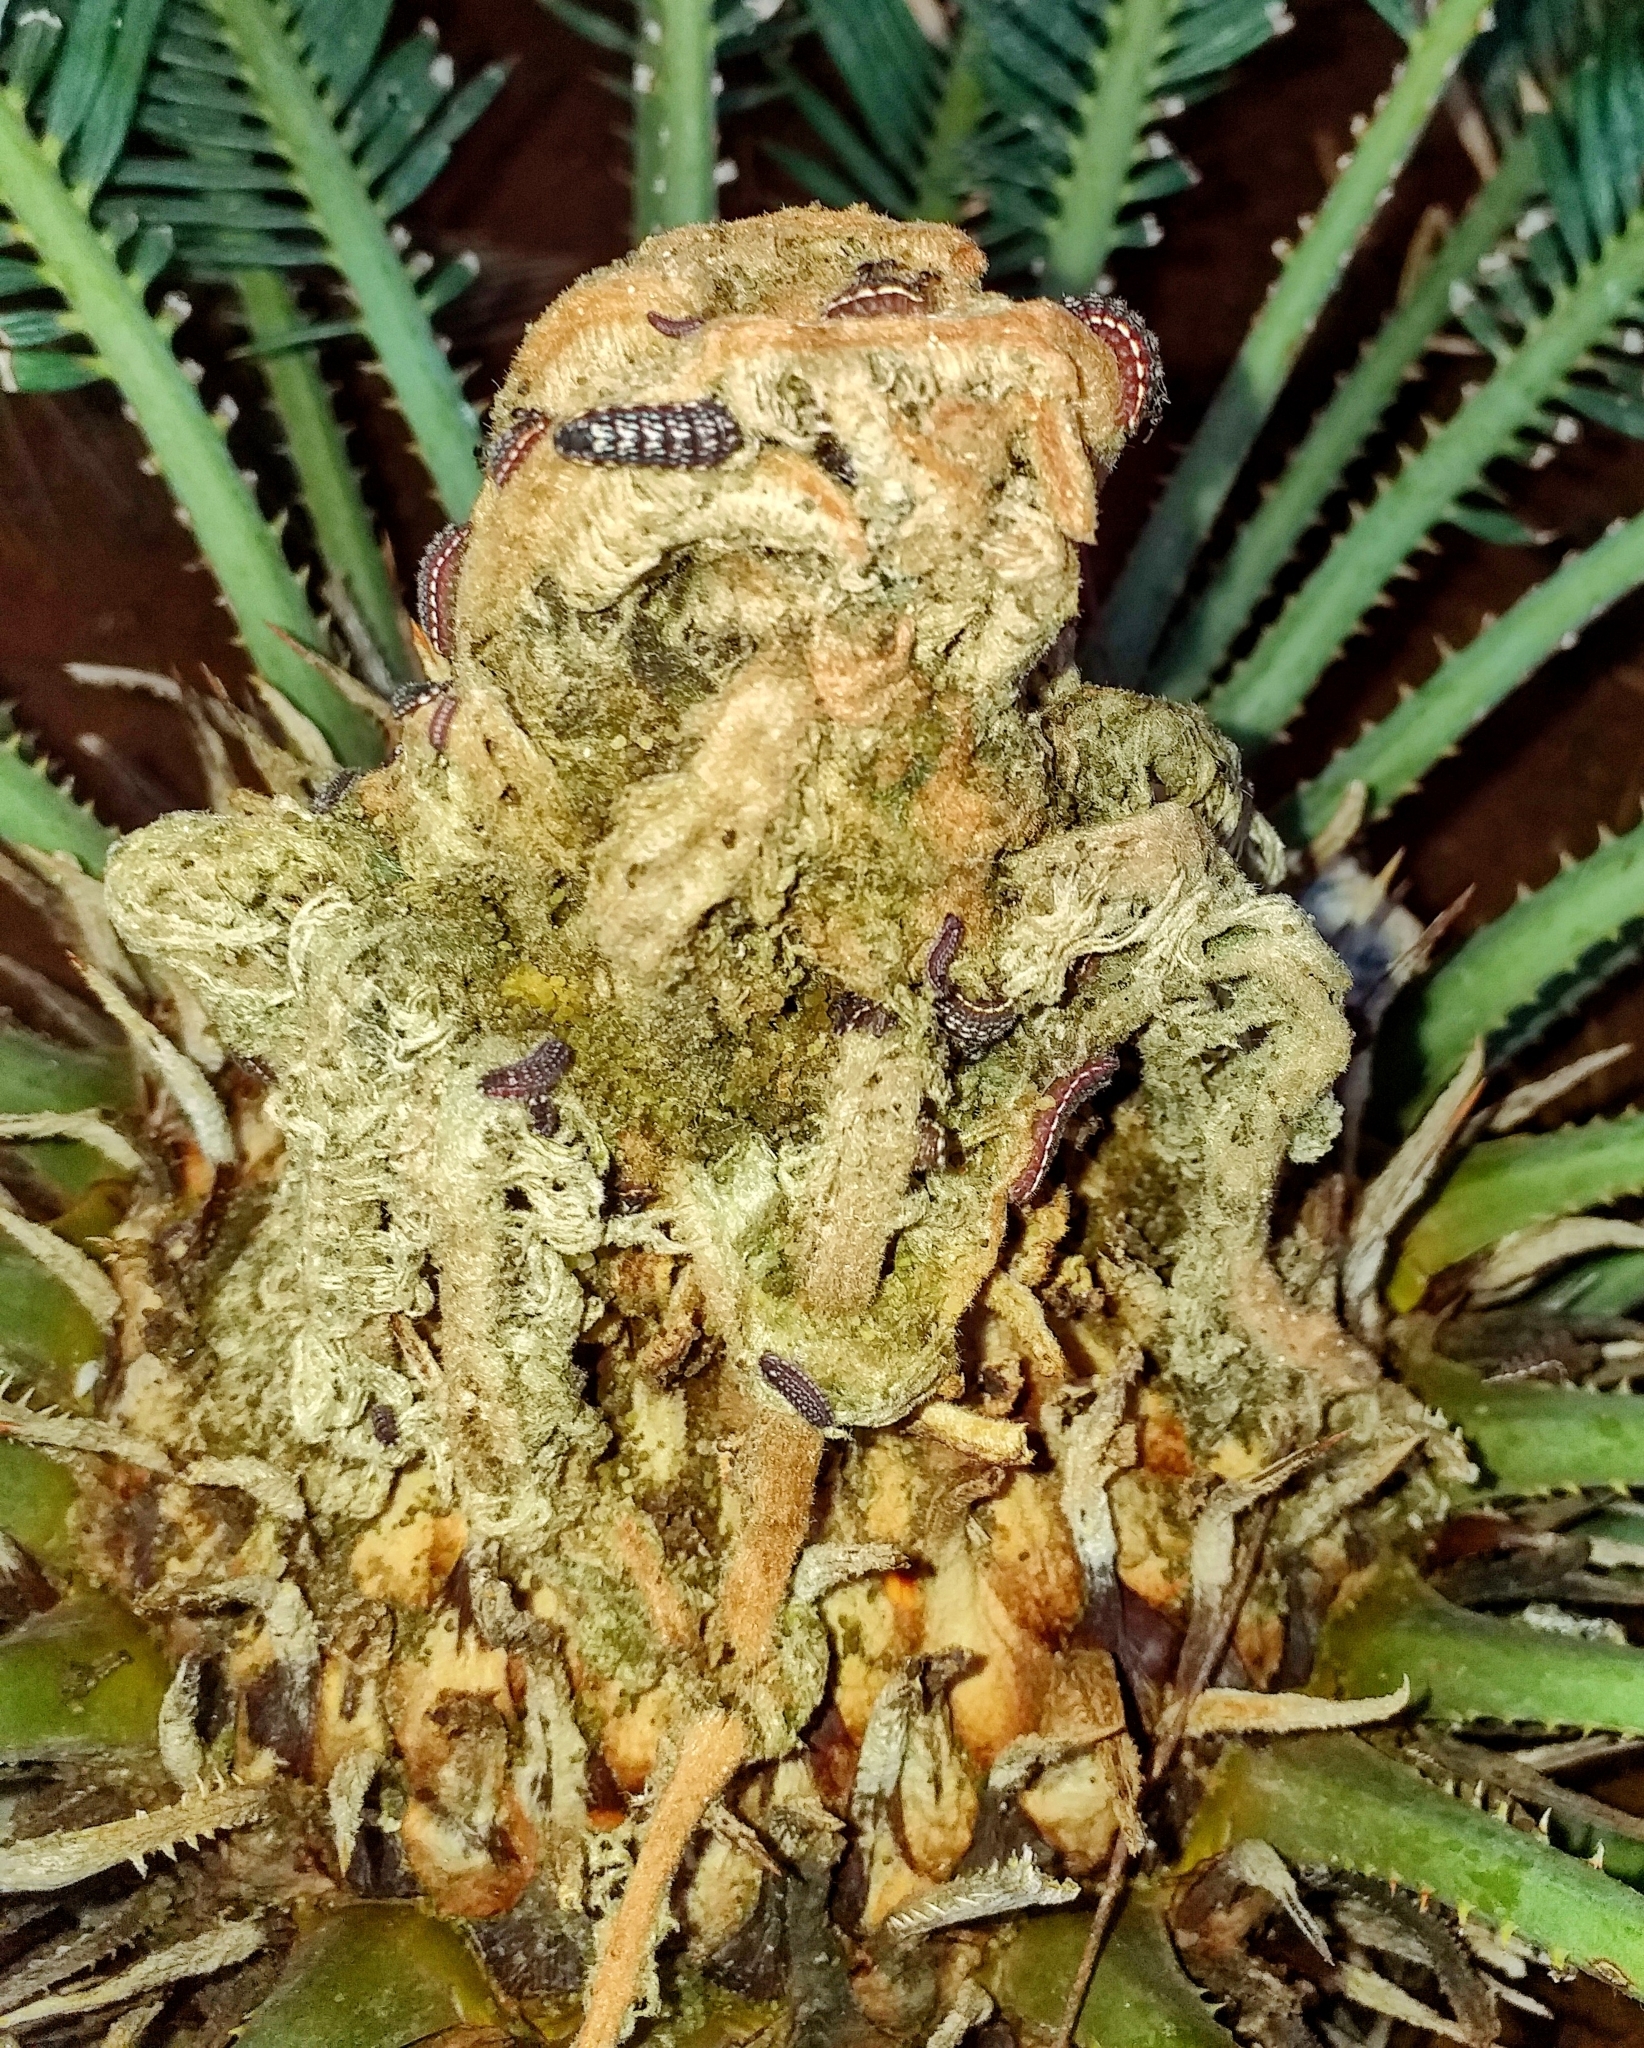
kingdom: Animalia
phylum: Arthropoda
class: Insecta
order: Lepidoptera
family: Lycaenidae
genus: Luthrodes
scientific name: Luthrodes pandava
